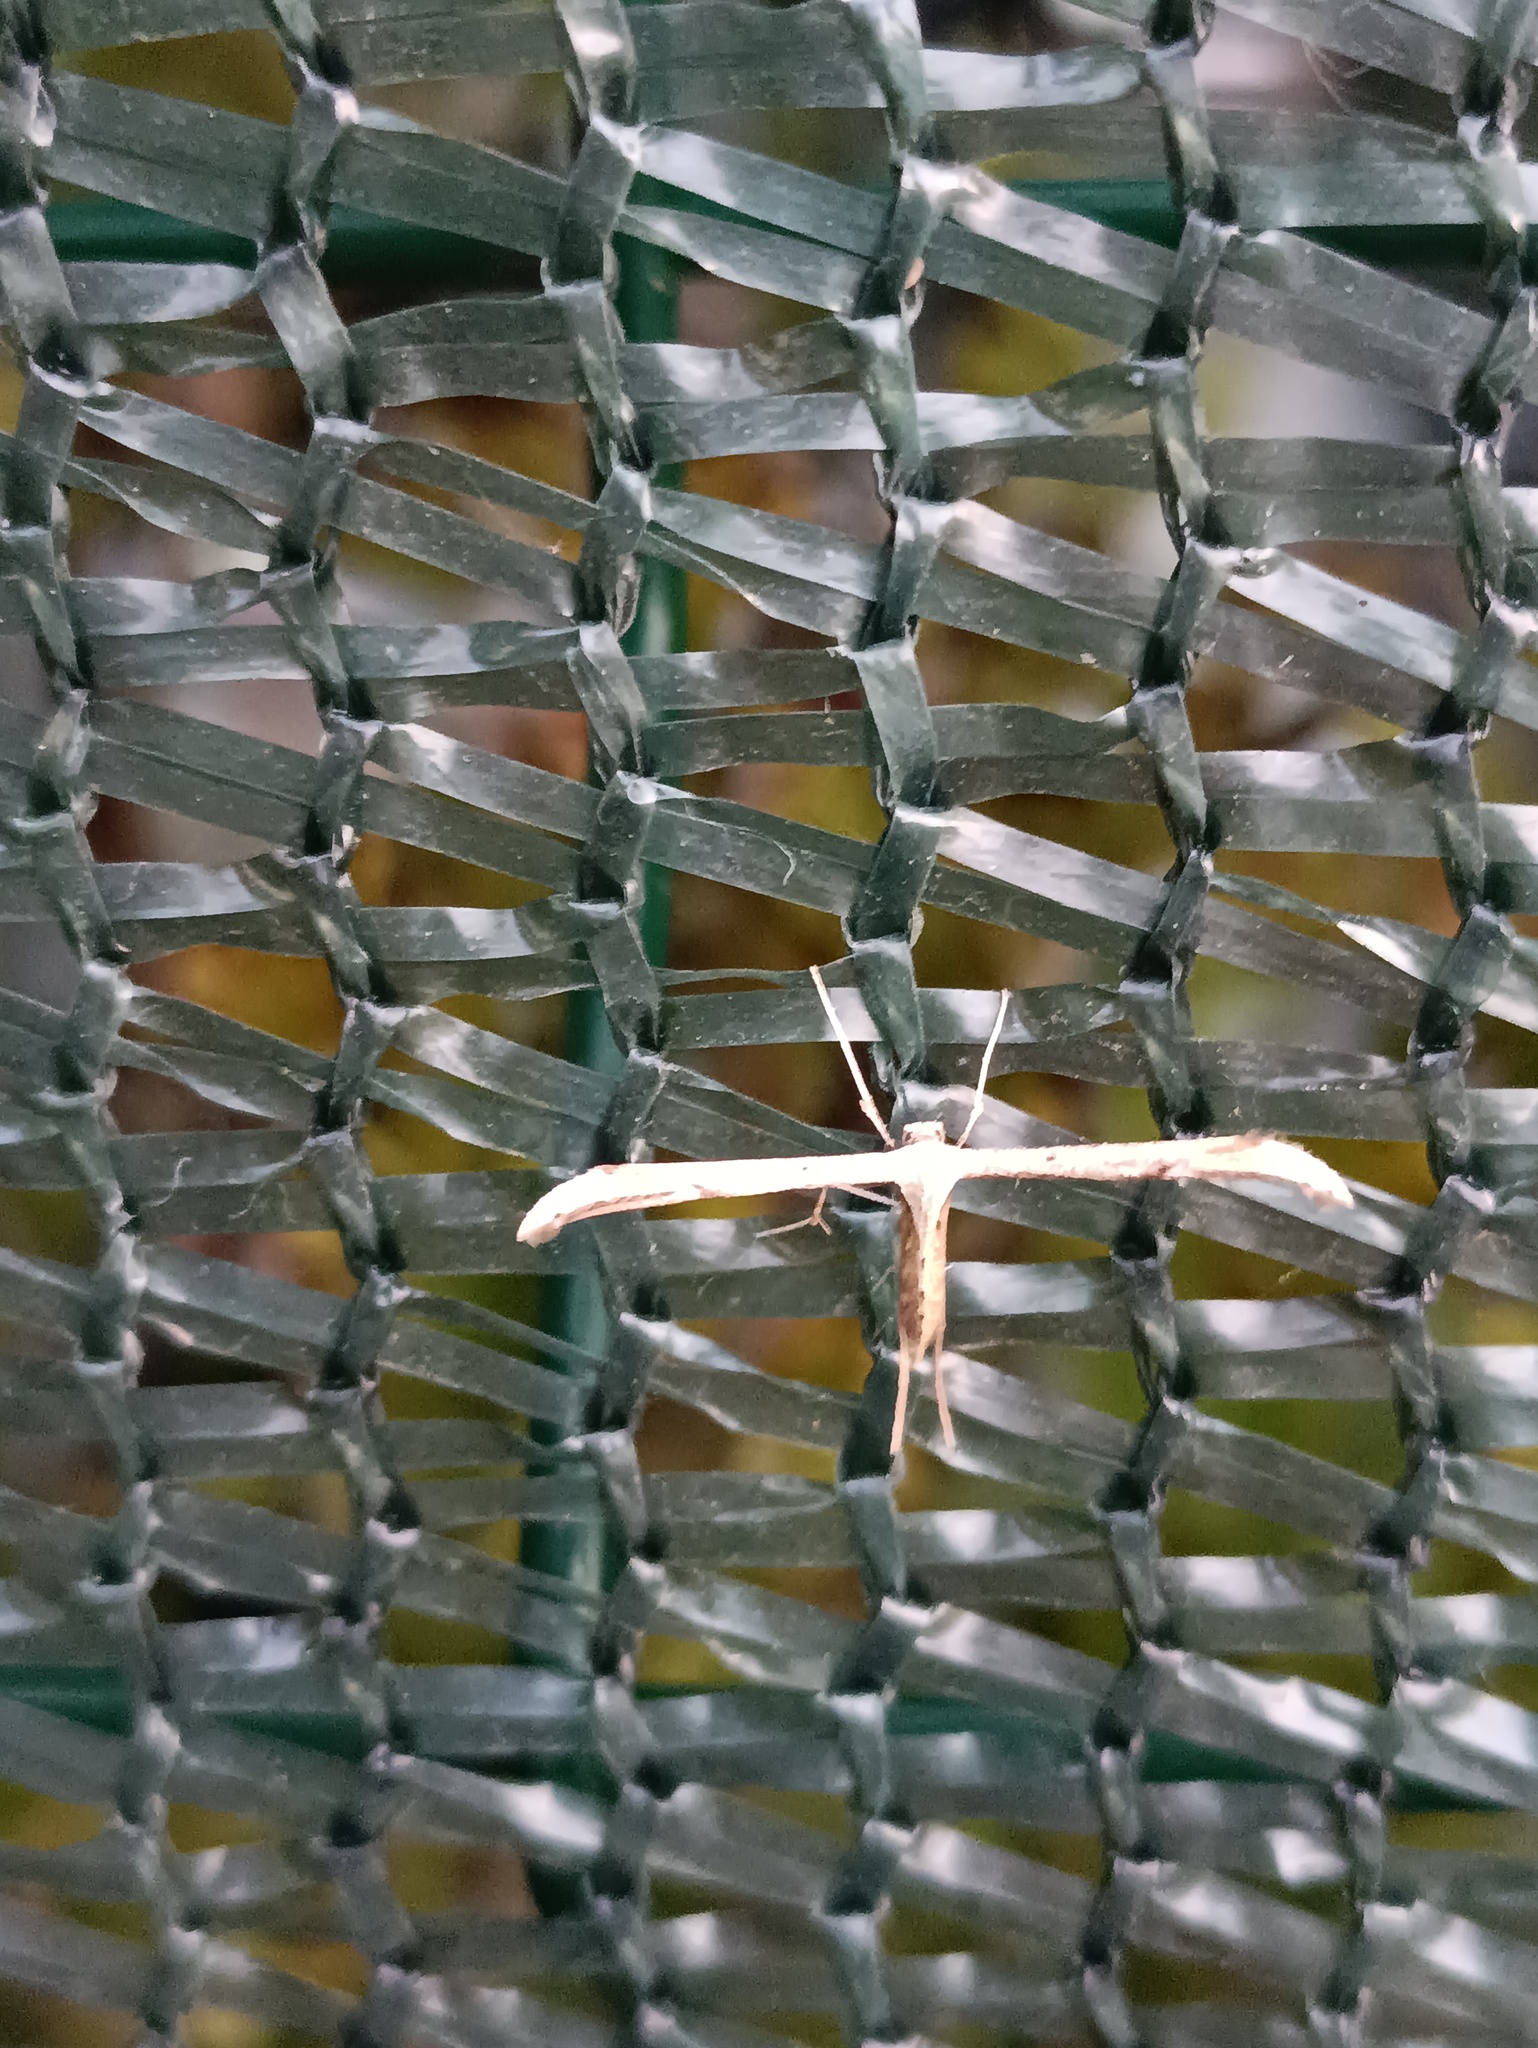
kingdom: Animalia
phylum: Arthropoda
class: Insecta
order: Lepidoptera
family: Pterophoridae
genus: Emmelina
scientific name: Emmelina monodactyla
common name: Common plume
